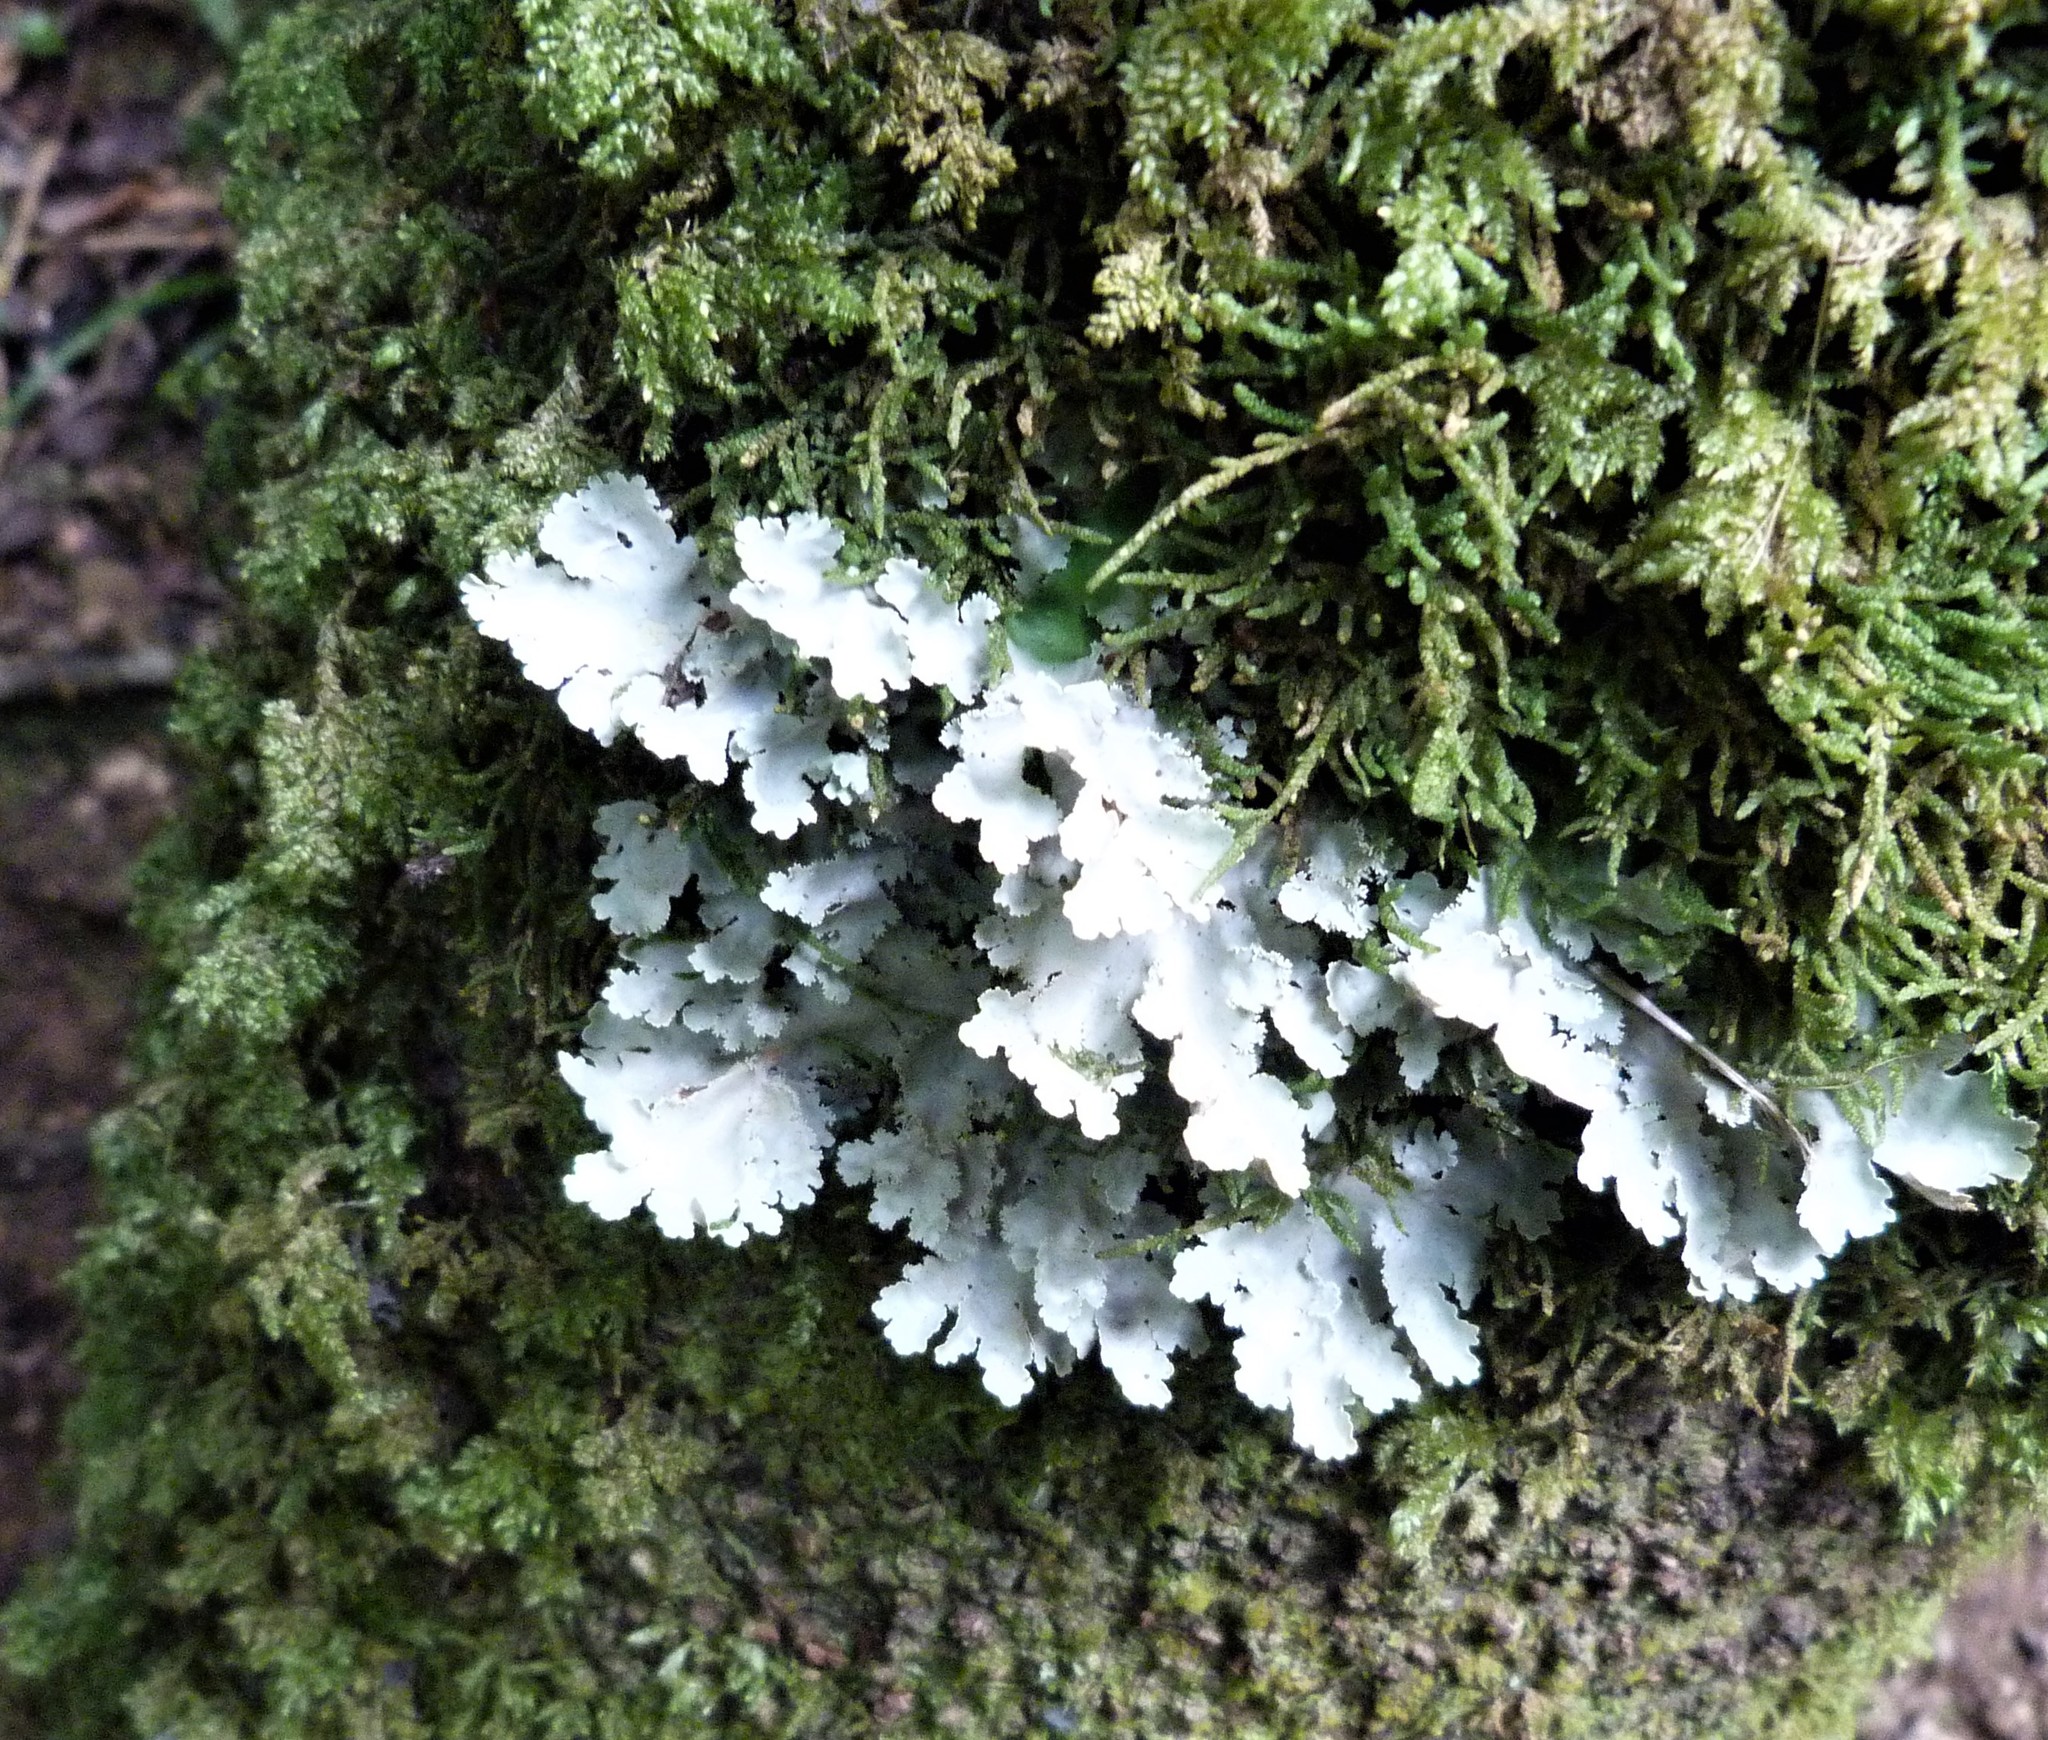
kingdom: Fungi
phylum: Ascomycota
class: Lecanoromycetes
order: Peltigerales
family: Lobariaceae
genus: Pseudocyphellaria
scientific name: Pseudocyphellaria multifida
